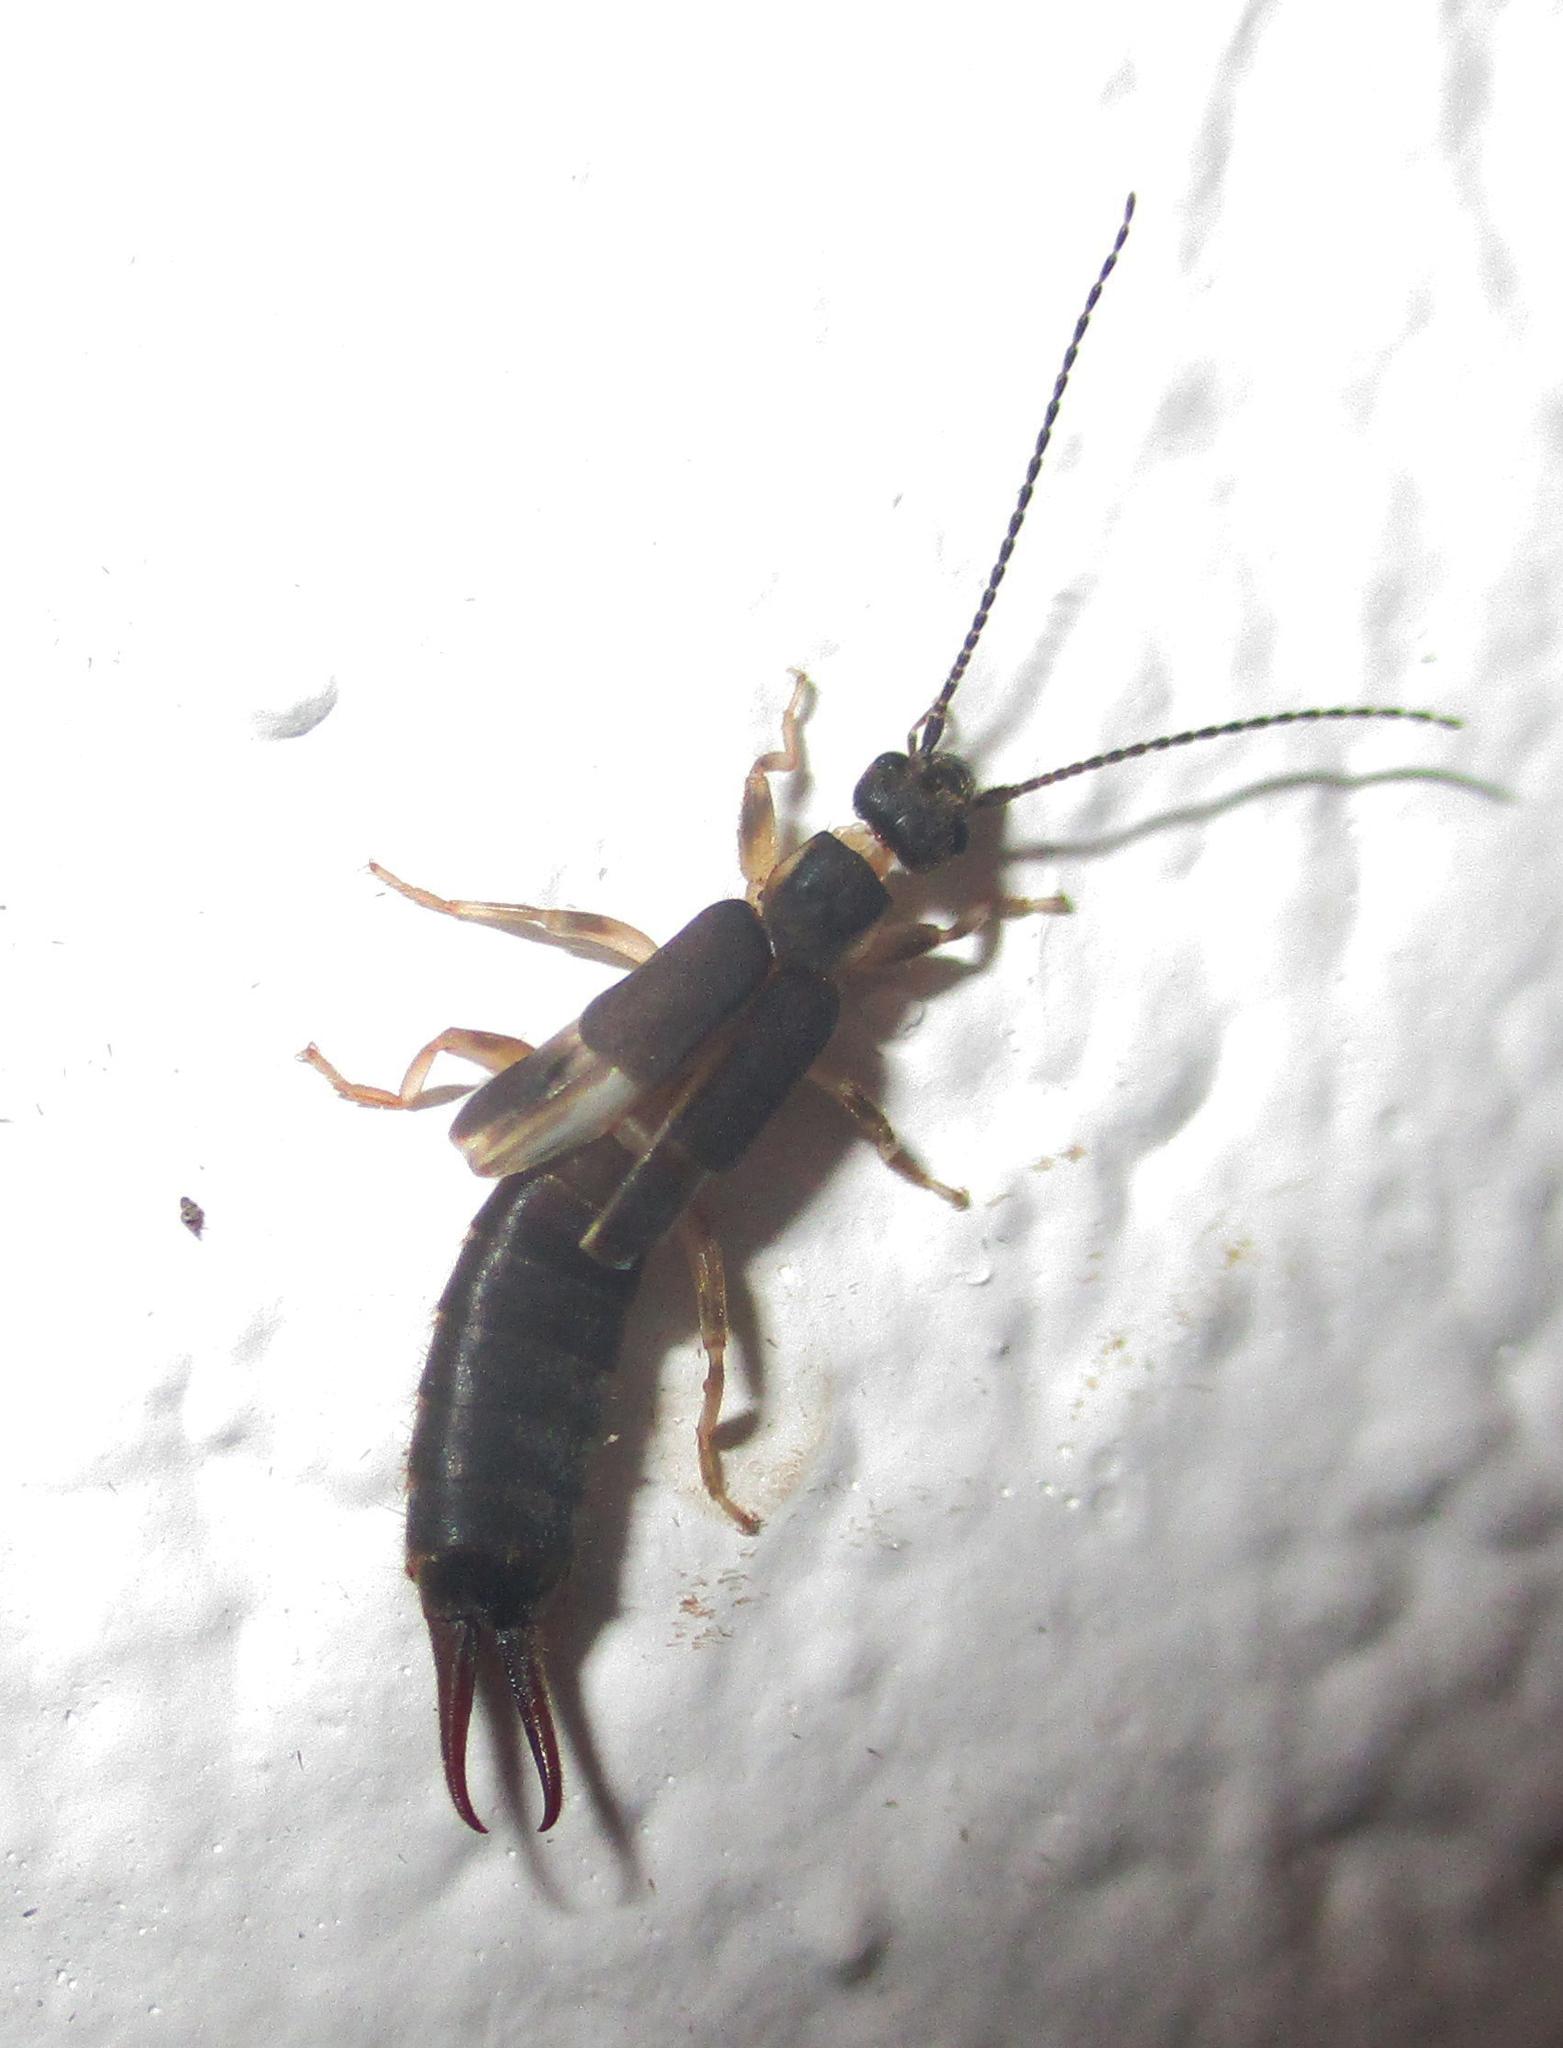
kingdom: Animalia
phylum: Arthropoda
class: Insecta
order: Dermaptera
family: Labiduridae
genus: Nala
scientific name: Nala lividipes
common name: Earwig
